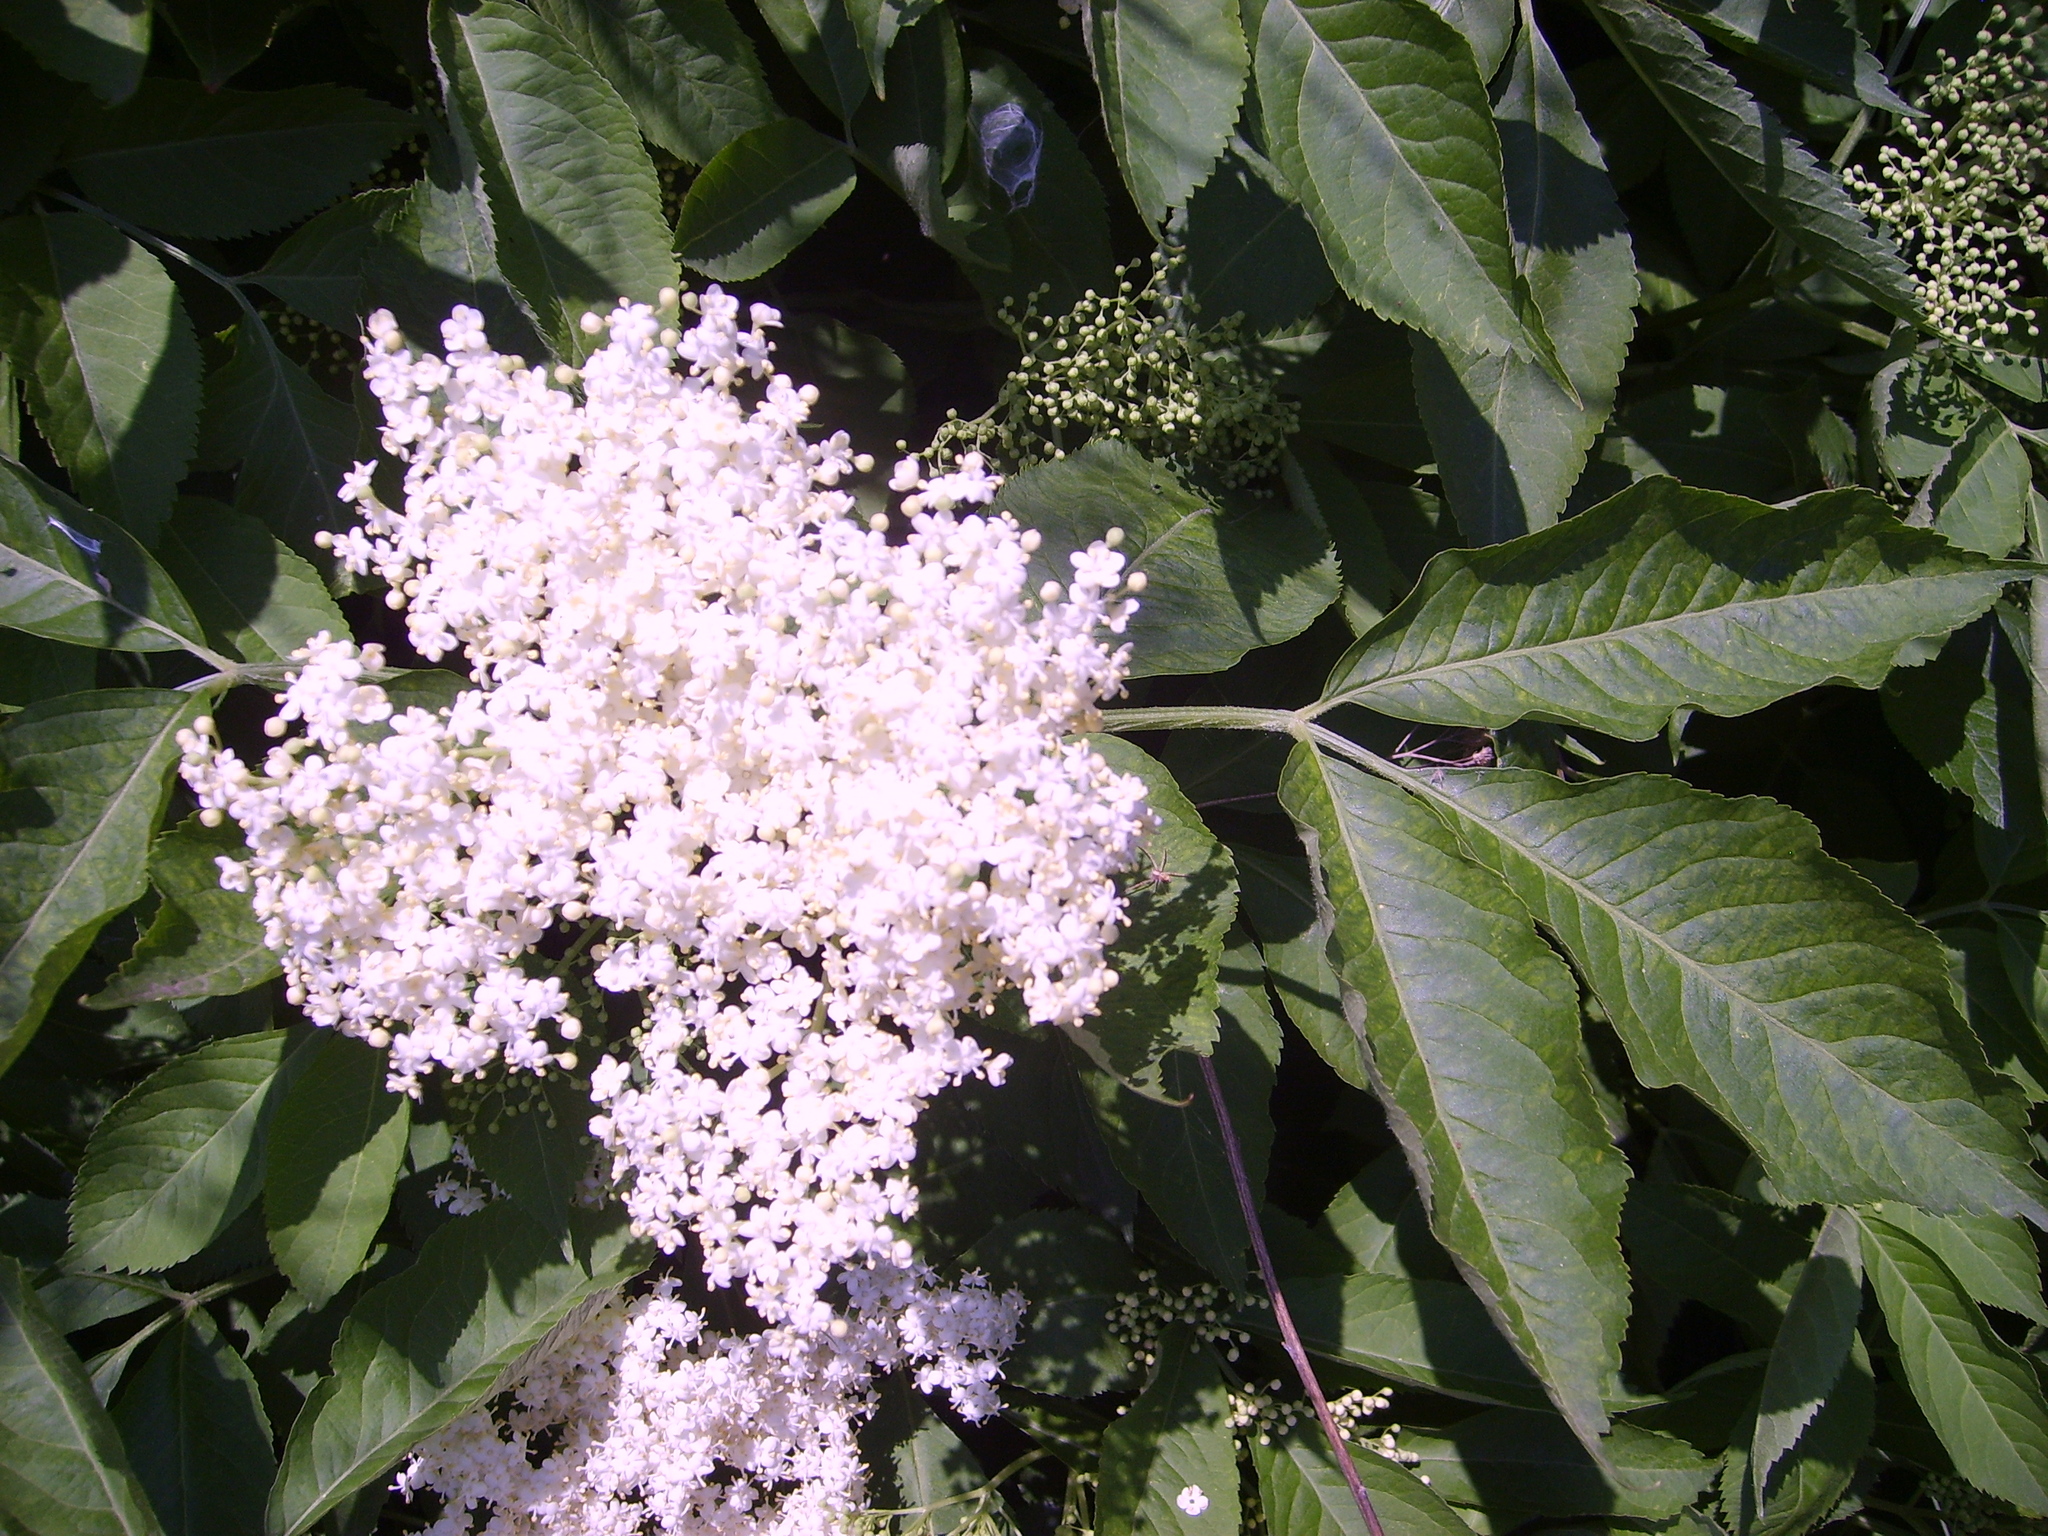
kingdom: Plantae
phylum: Tracheophyta
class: Magnoliopsida
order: Dipsacales
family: Viburnaceae
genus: Sambucus
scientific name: Sambucus nigra
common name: Elder
